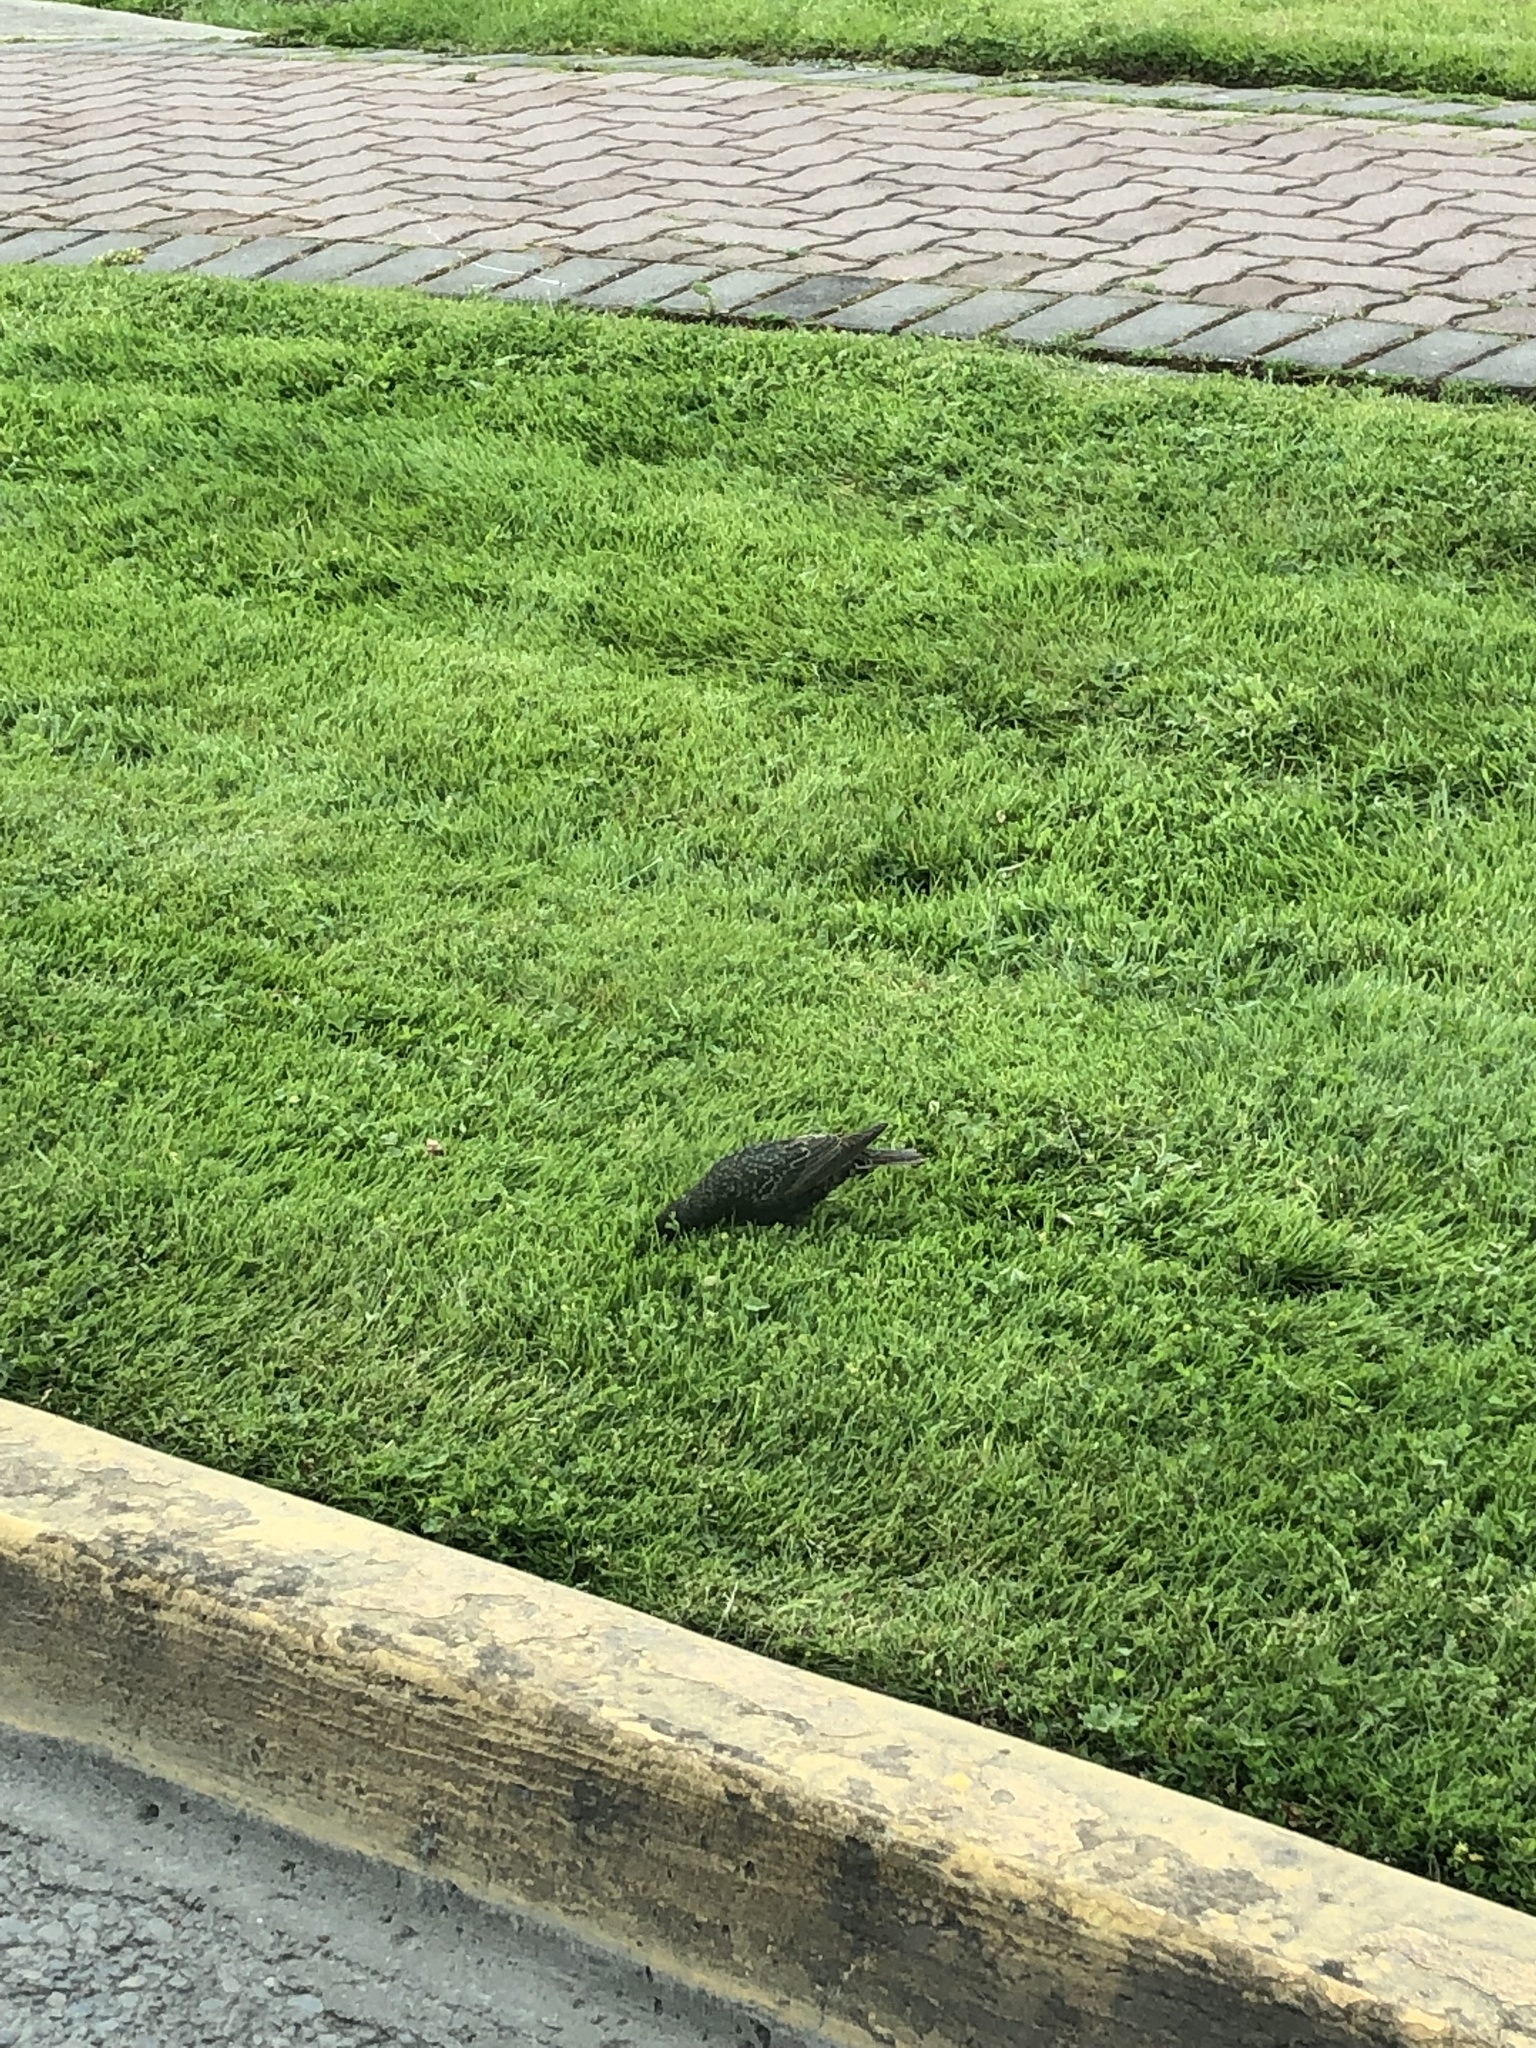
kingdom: Animalia
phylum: Chordata
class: Aves
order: Passeriformes
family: Sturnidae
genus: Sturnus
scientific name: Sturnus vulgaris
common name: Common starling
